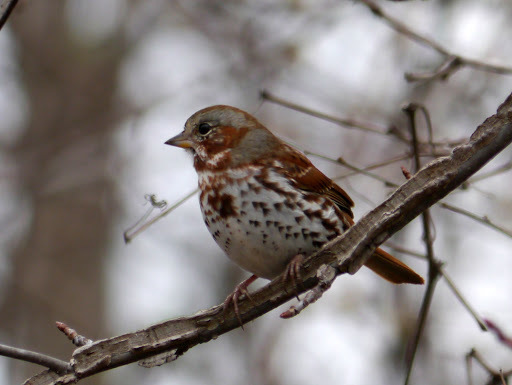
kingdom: Animalia
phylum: Chordata
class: Aves
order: Passeriformes
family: Passerellidae
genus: Passerella
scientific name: Passerella iliaca
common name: Fox sparrow
